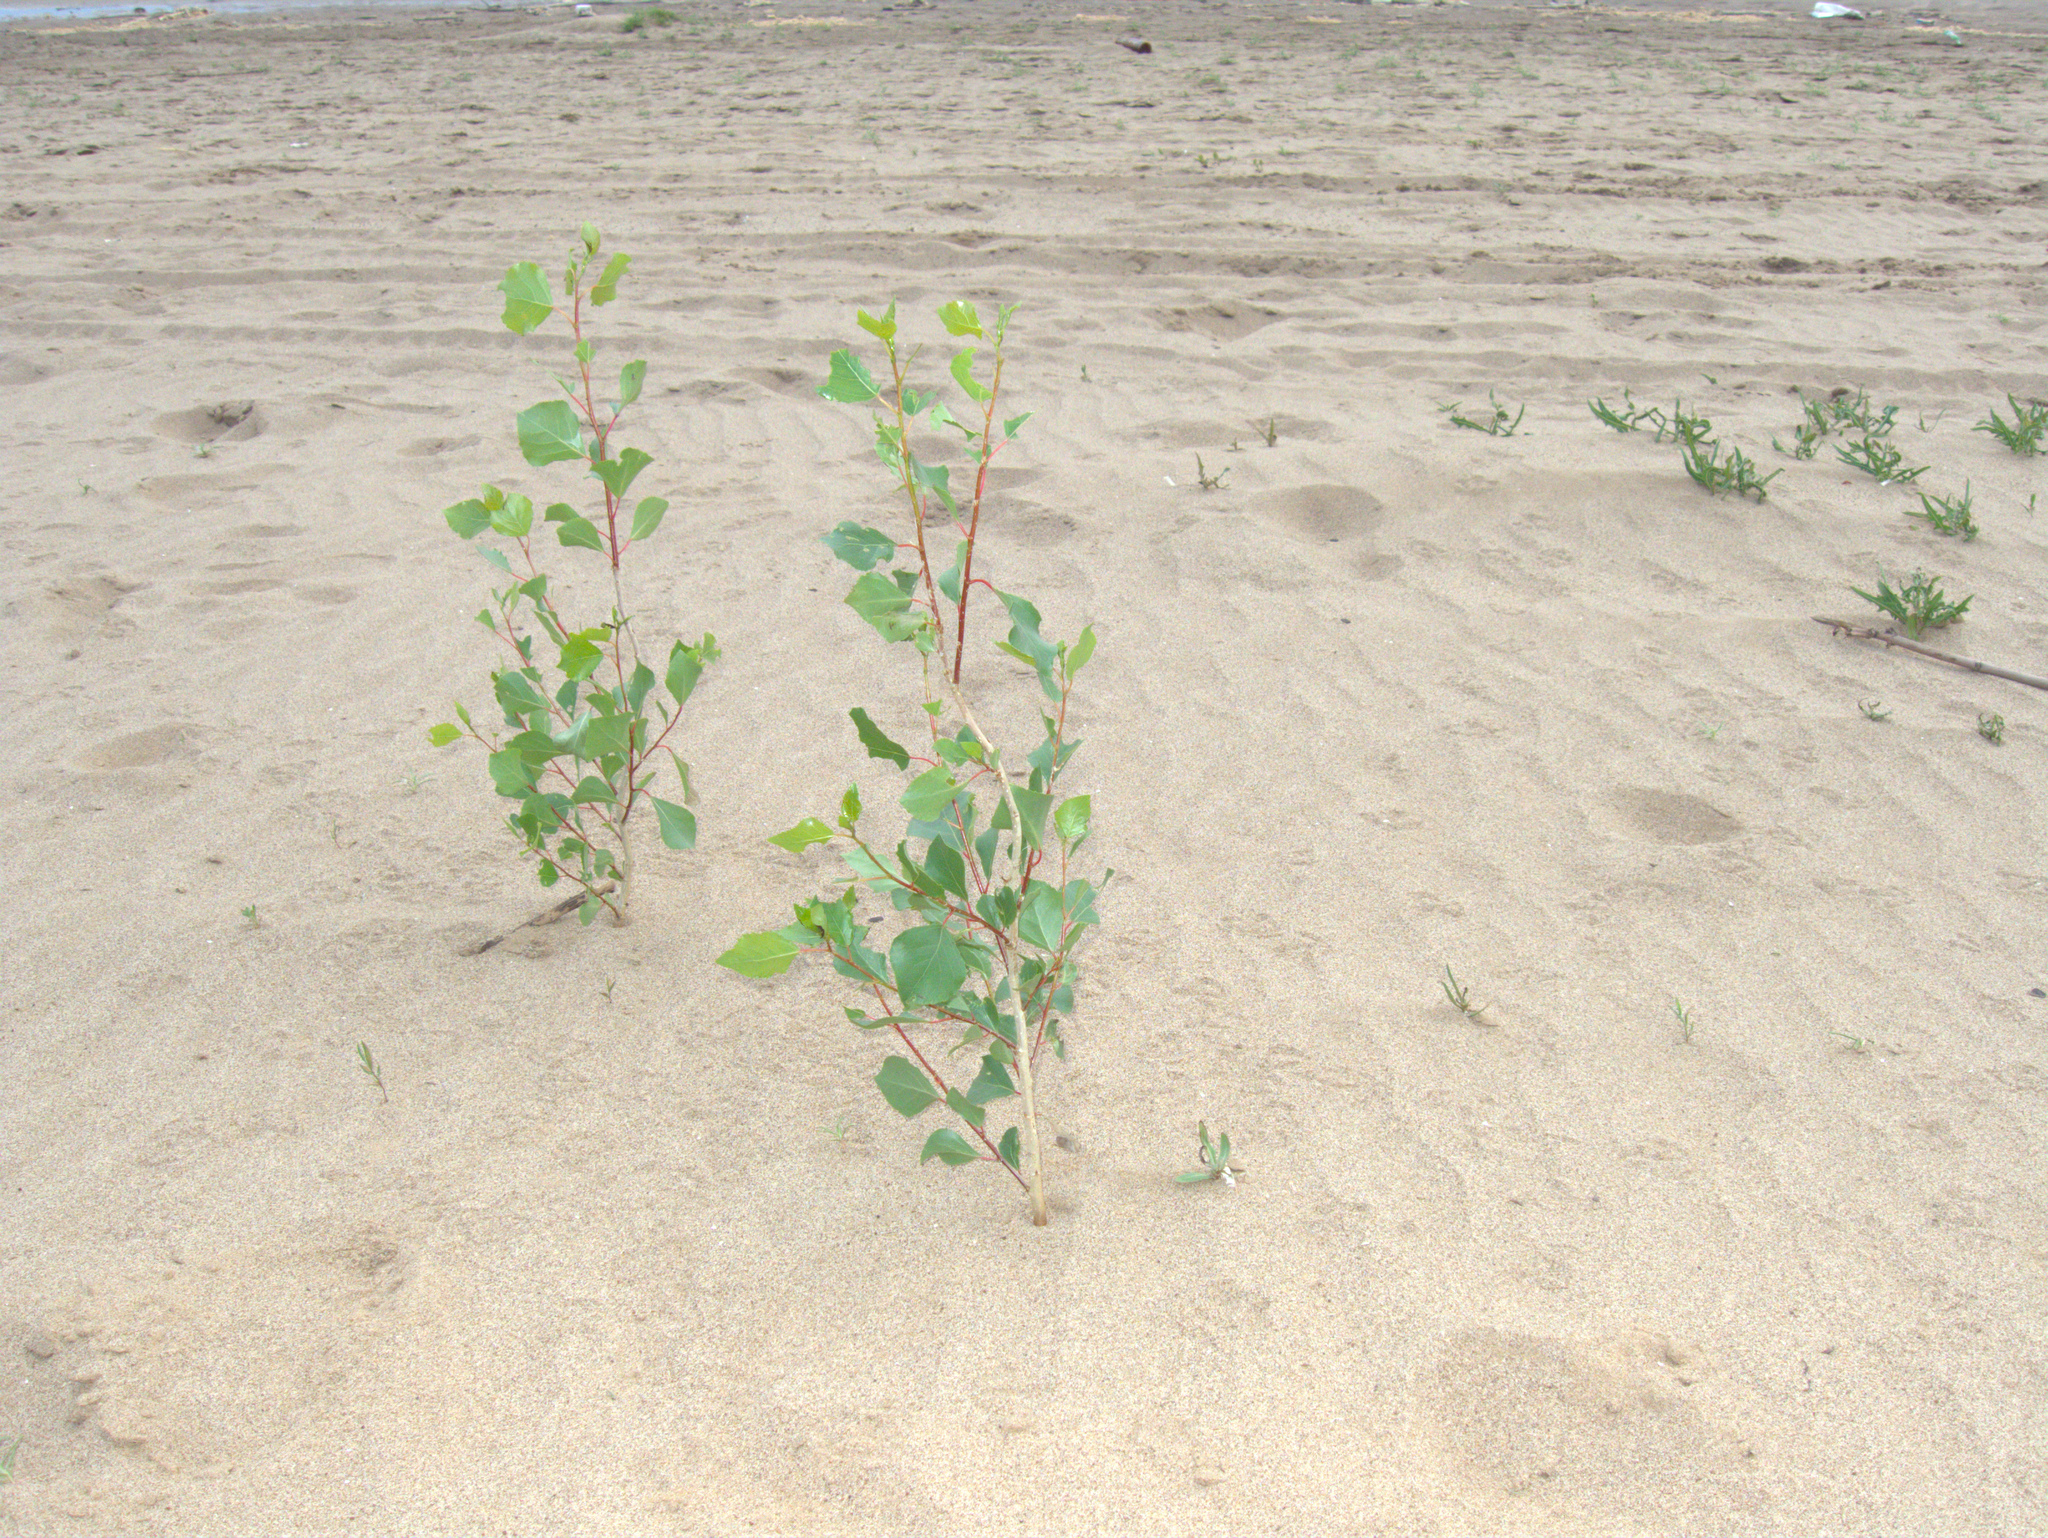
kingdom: Plantae
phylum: Tracheophyta
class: Magnoliopsida
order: Asterales
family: Asteraceae
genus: Lactuca
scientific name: Lactuca serriola
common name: Prickly lettuce
